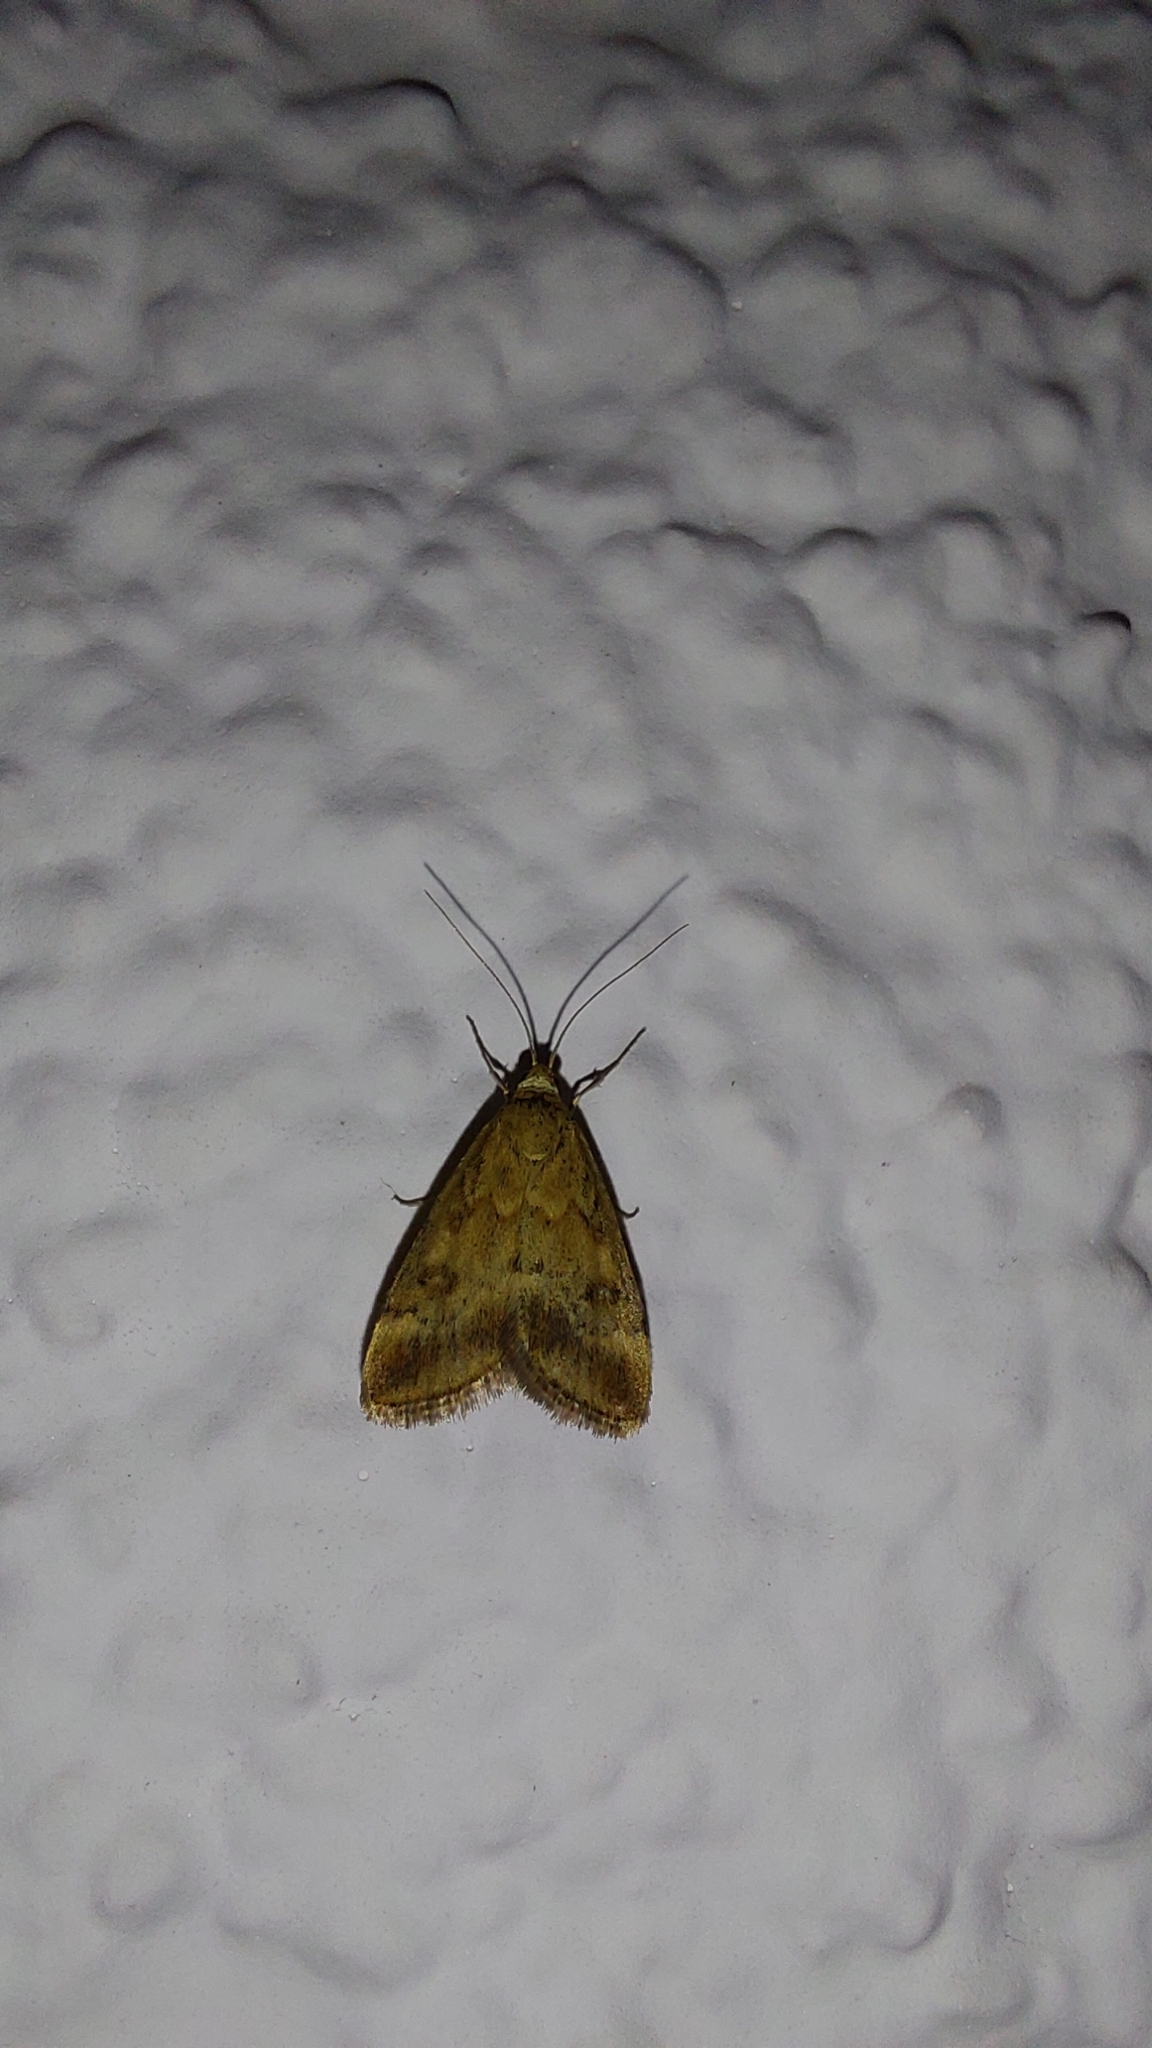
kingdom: Animalia
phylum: Arthropoda
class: Insecta
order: Lepidoptera
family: Crambidae
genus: Pyrausta
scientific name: Pyrausta despicata
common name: Straw-barred pearl
